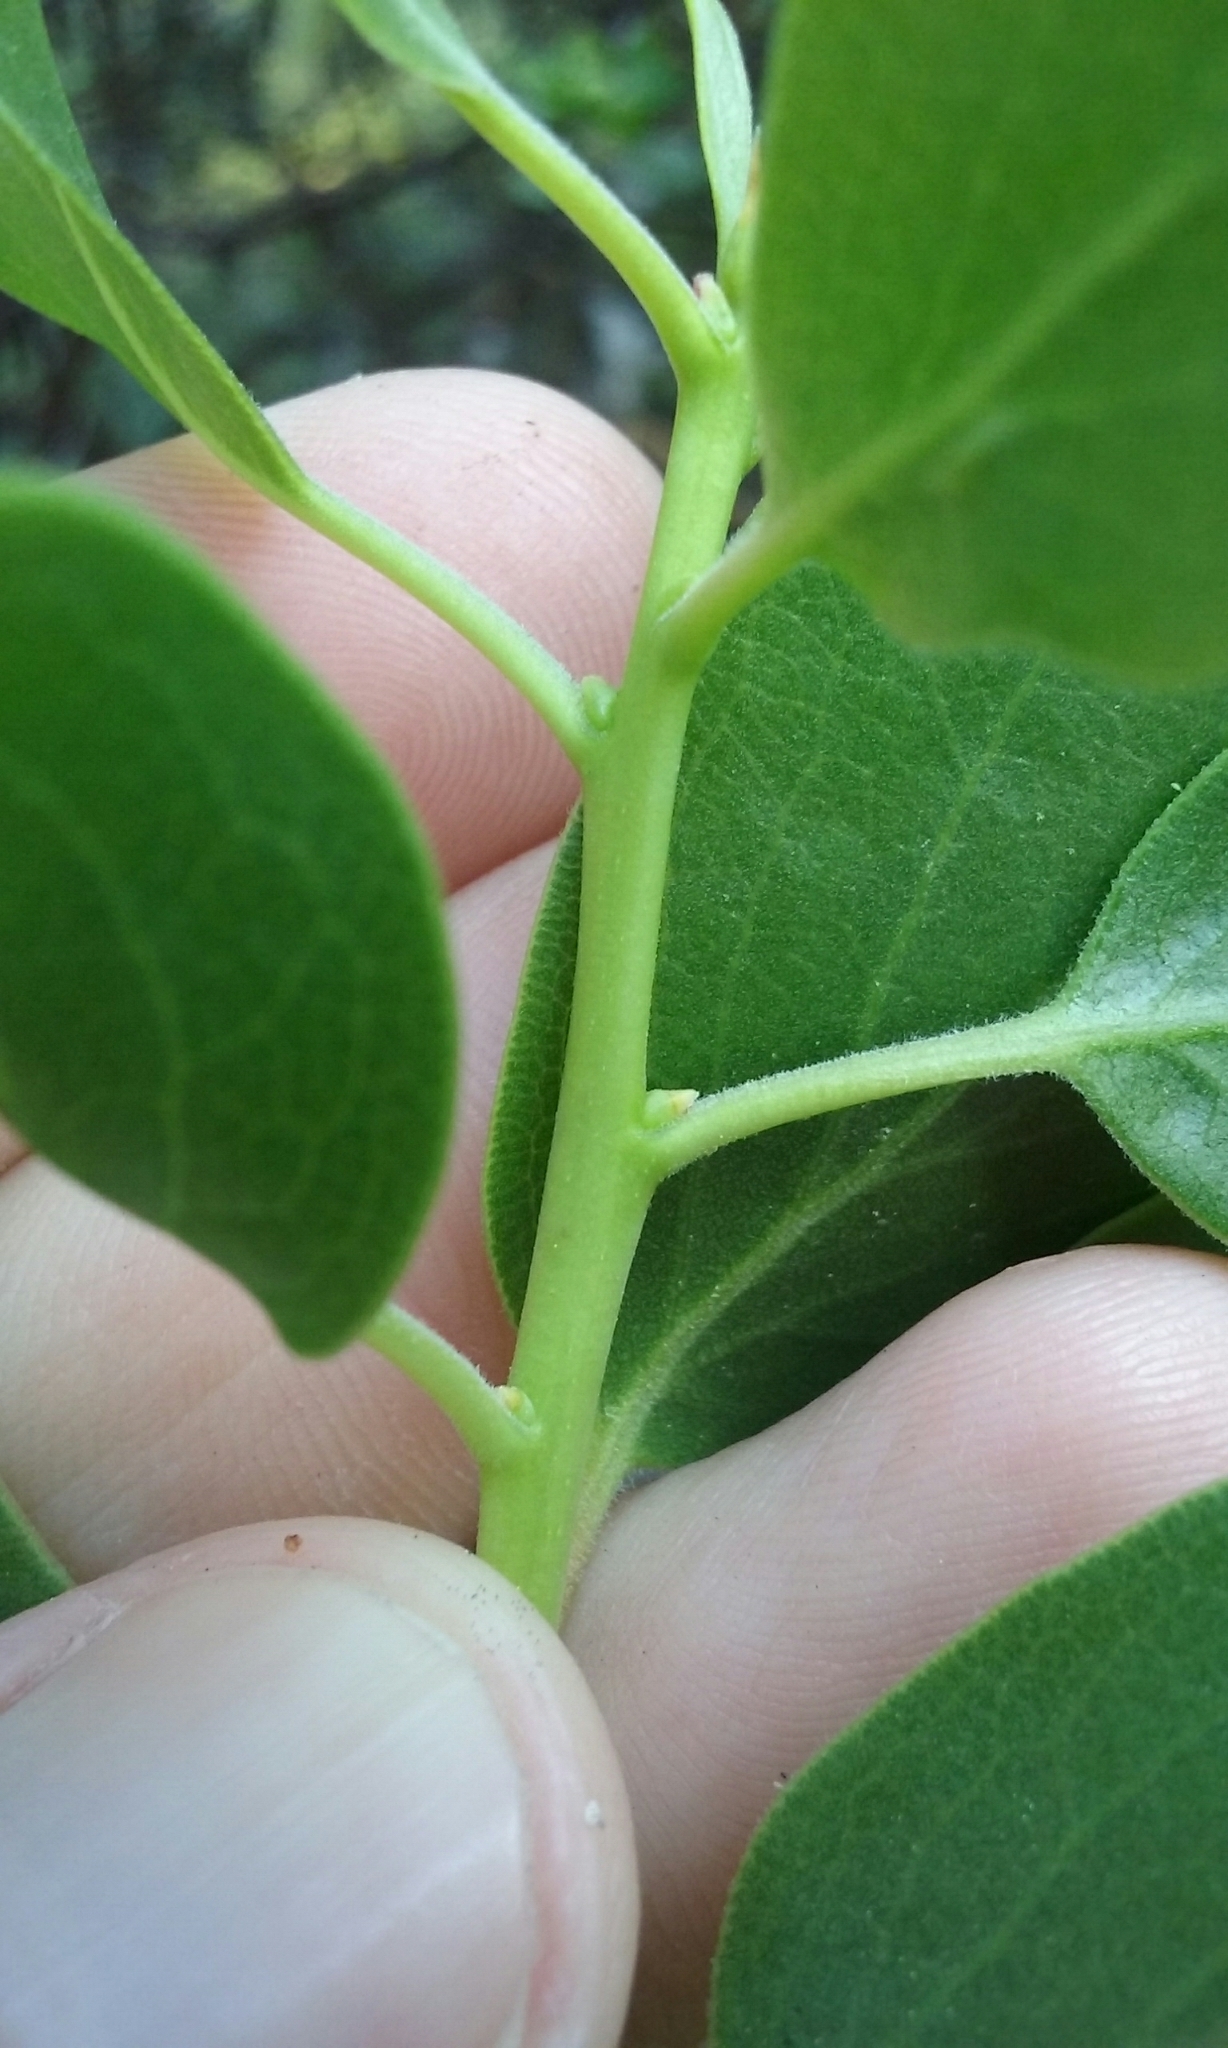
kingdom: Plantae
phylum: Tracheophyta
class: Magnoliopsida
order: Ericales
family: Ericaceae
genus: Arctostaphylos
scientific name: Arctostaphylos manzanita
